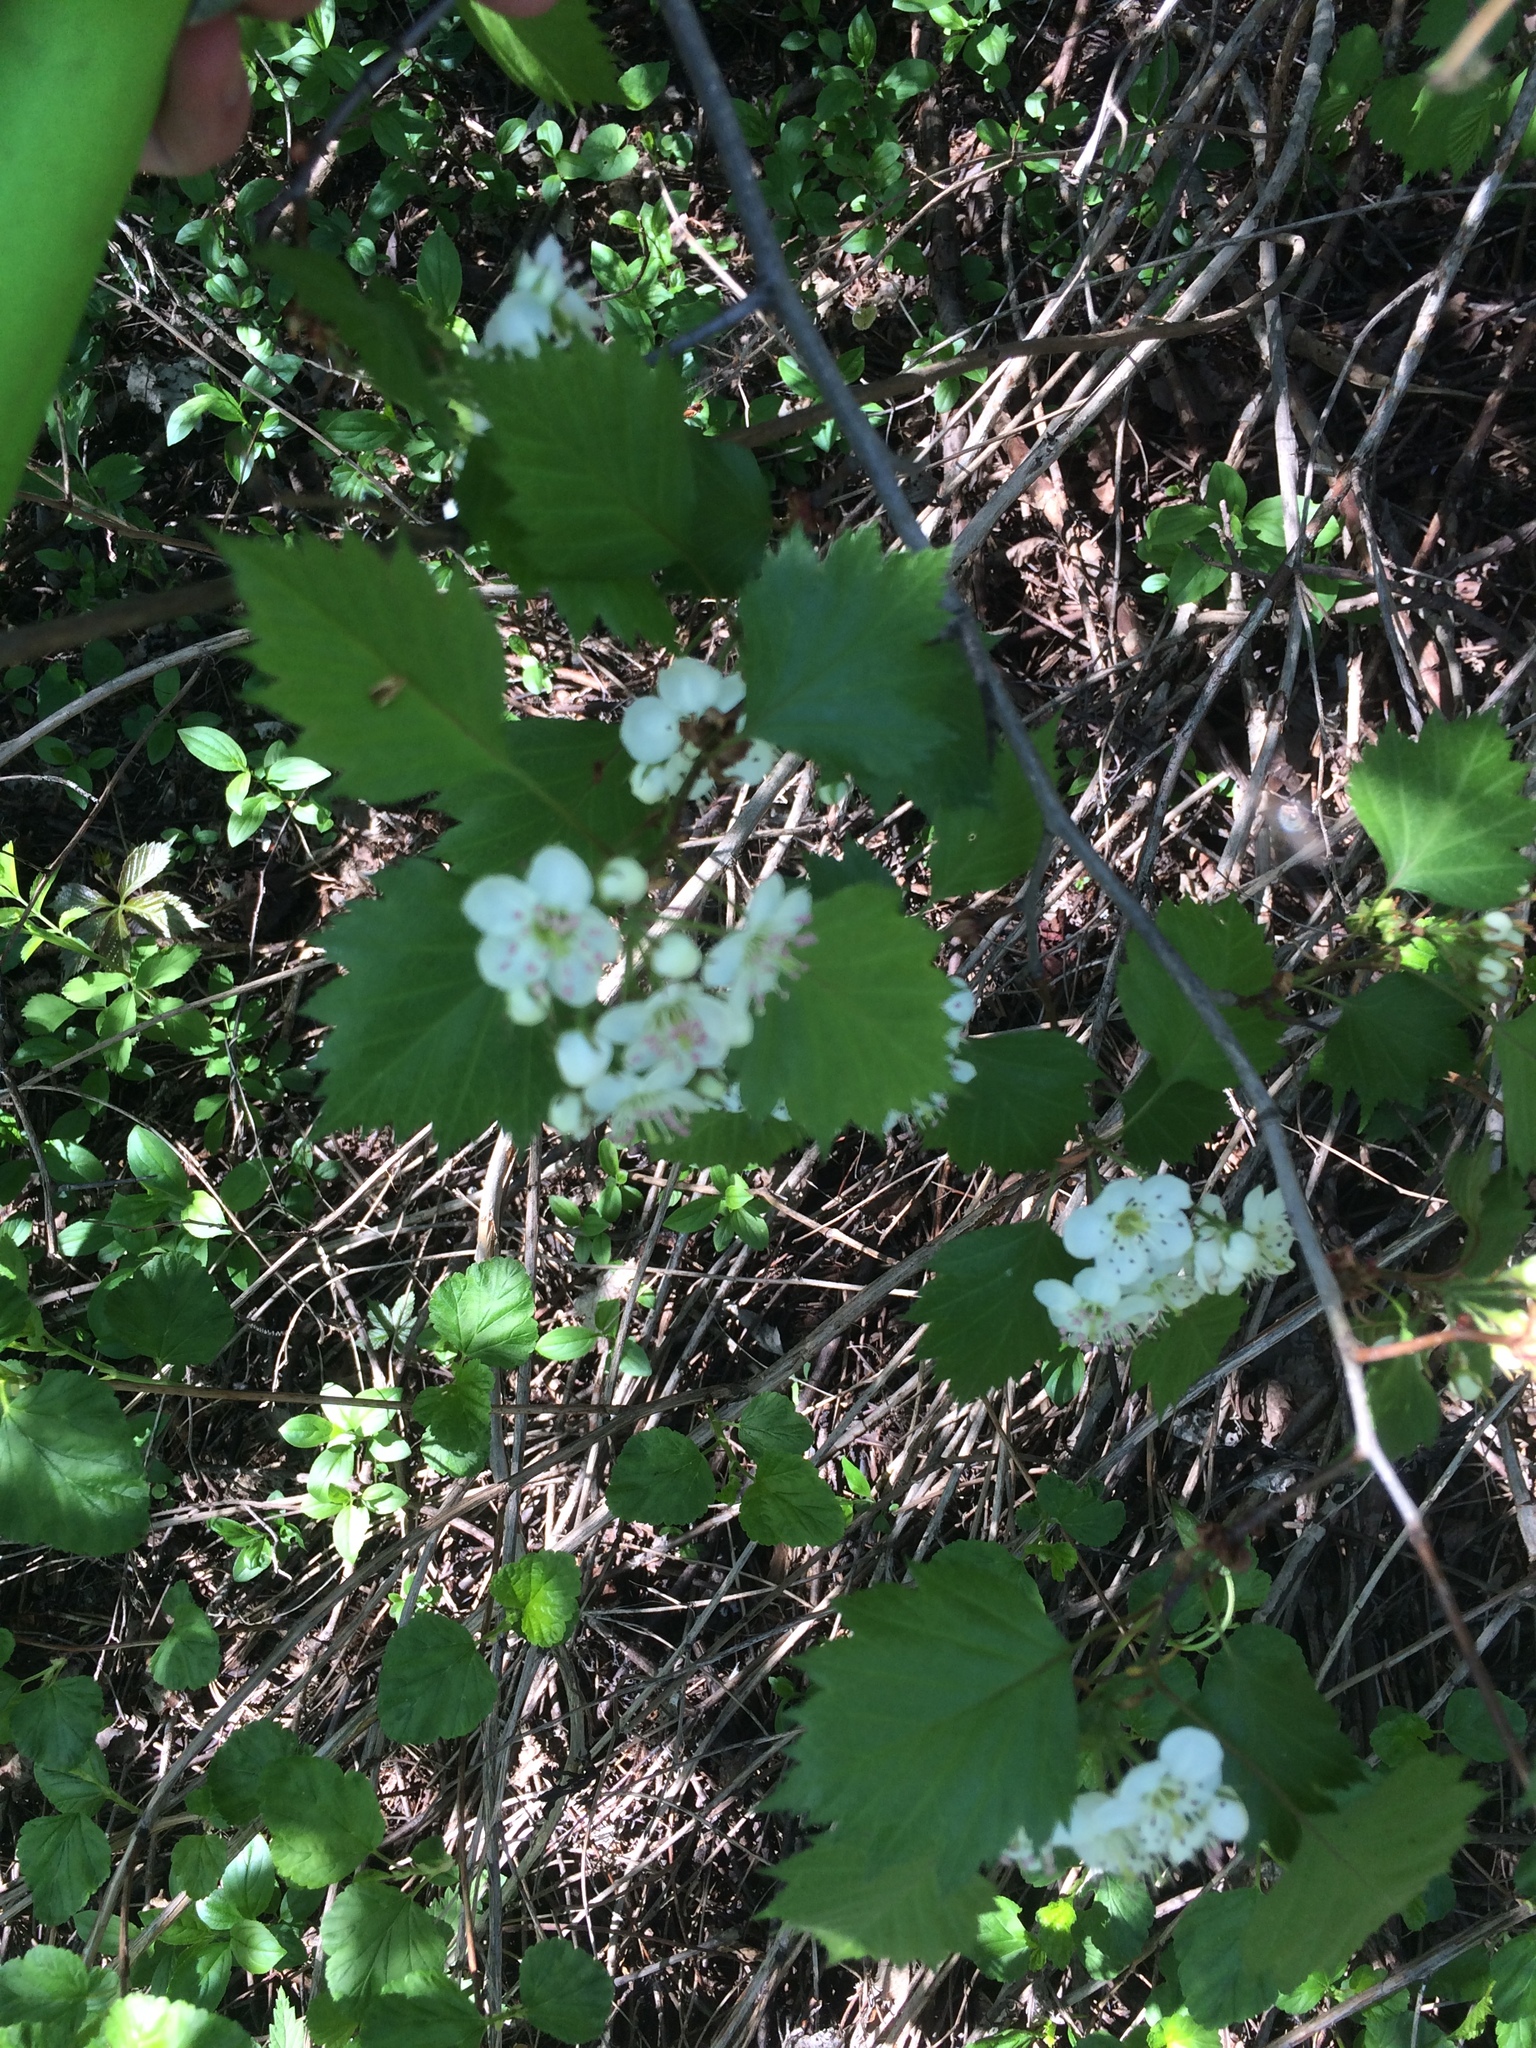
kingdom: Plantae
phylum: Tracheophyta
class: Magnoliopsida
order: Rosales
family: Rosaceae
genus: Crataegus
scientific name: Crataegus flabellata
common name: Bosc's hawthorn
